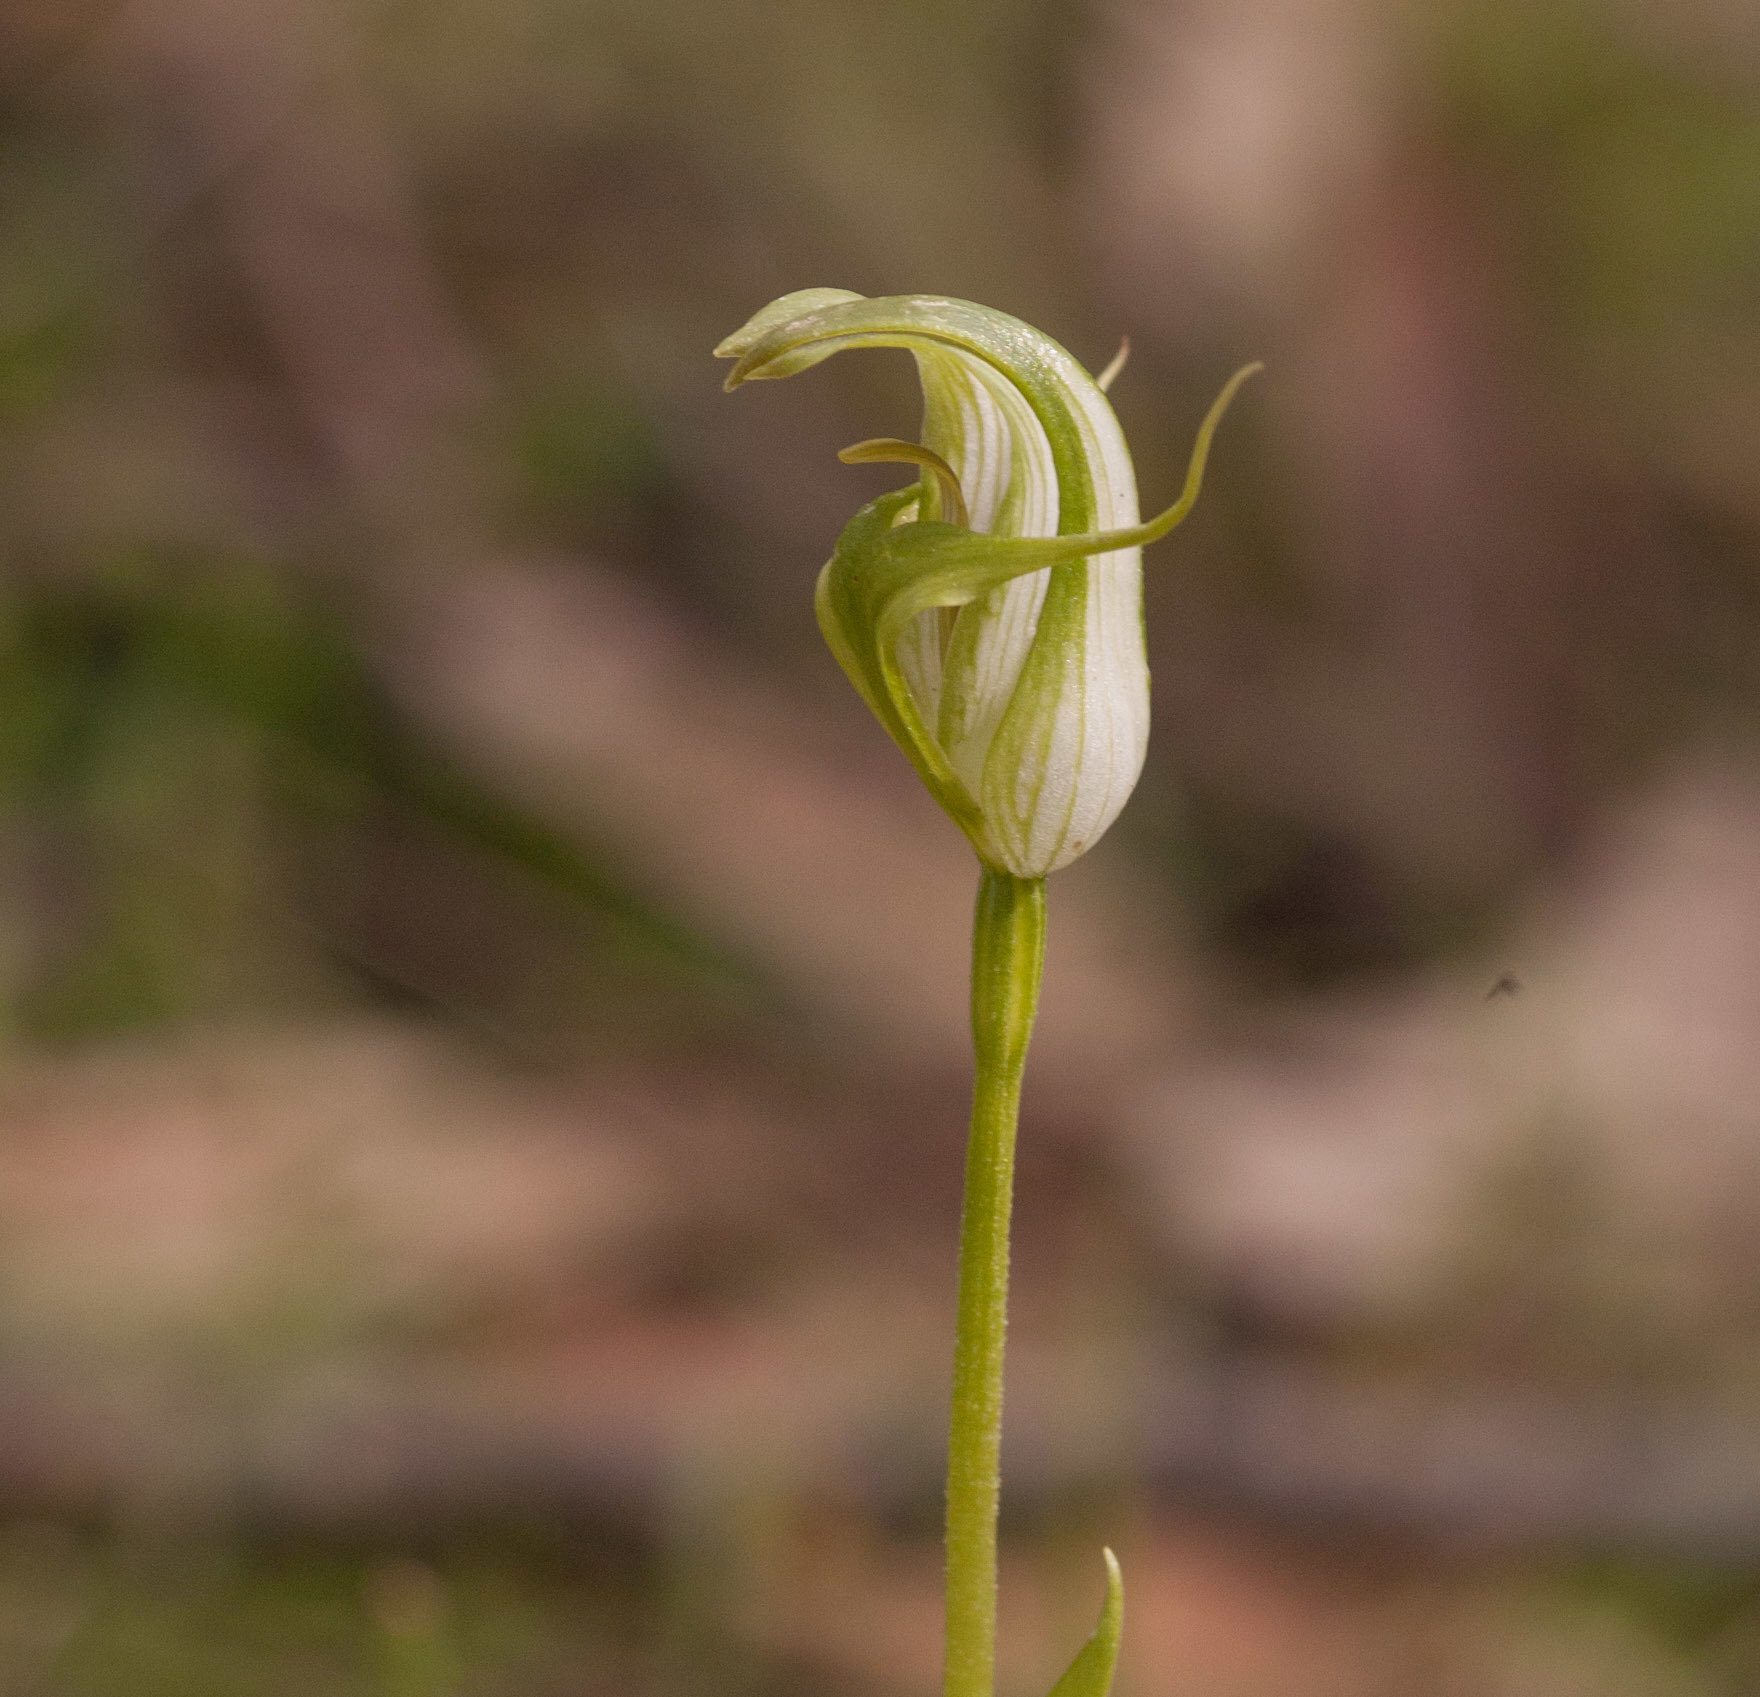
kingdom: Plantae
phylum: Tracheophyta
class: Liliopsida
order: Asparagales
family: Orchidaceae
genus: Pterostylis
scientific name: Pterostylis alpina
